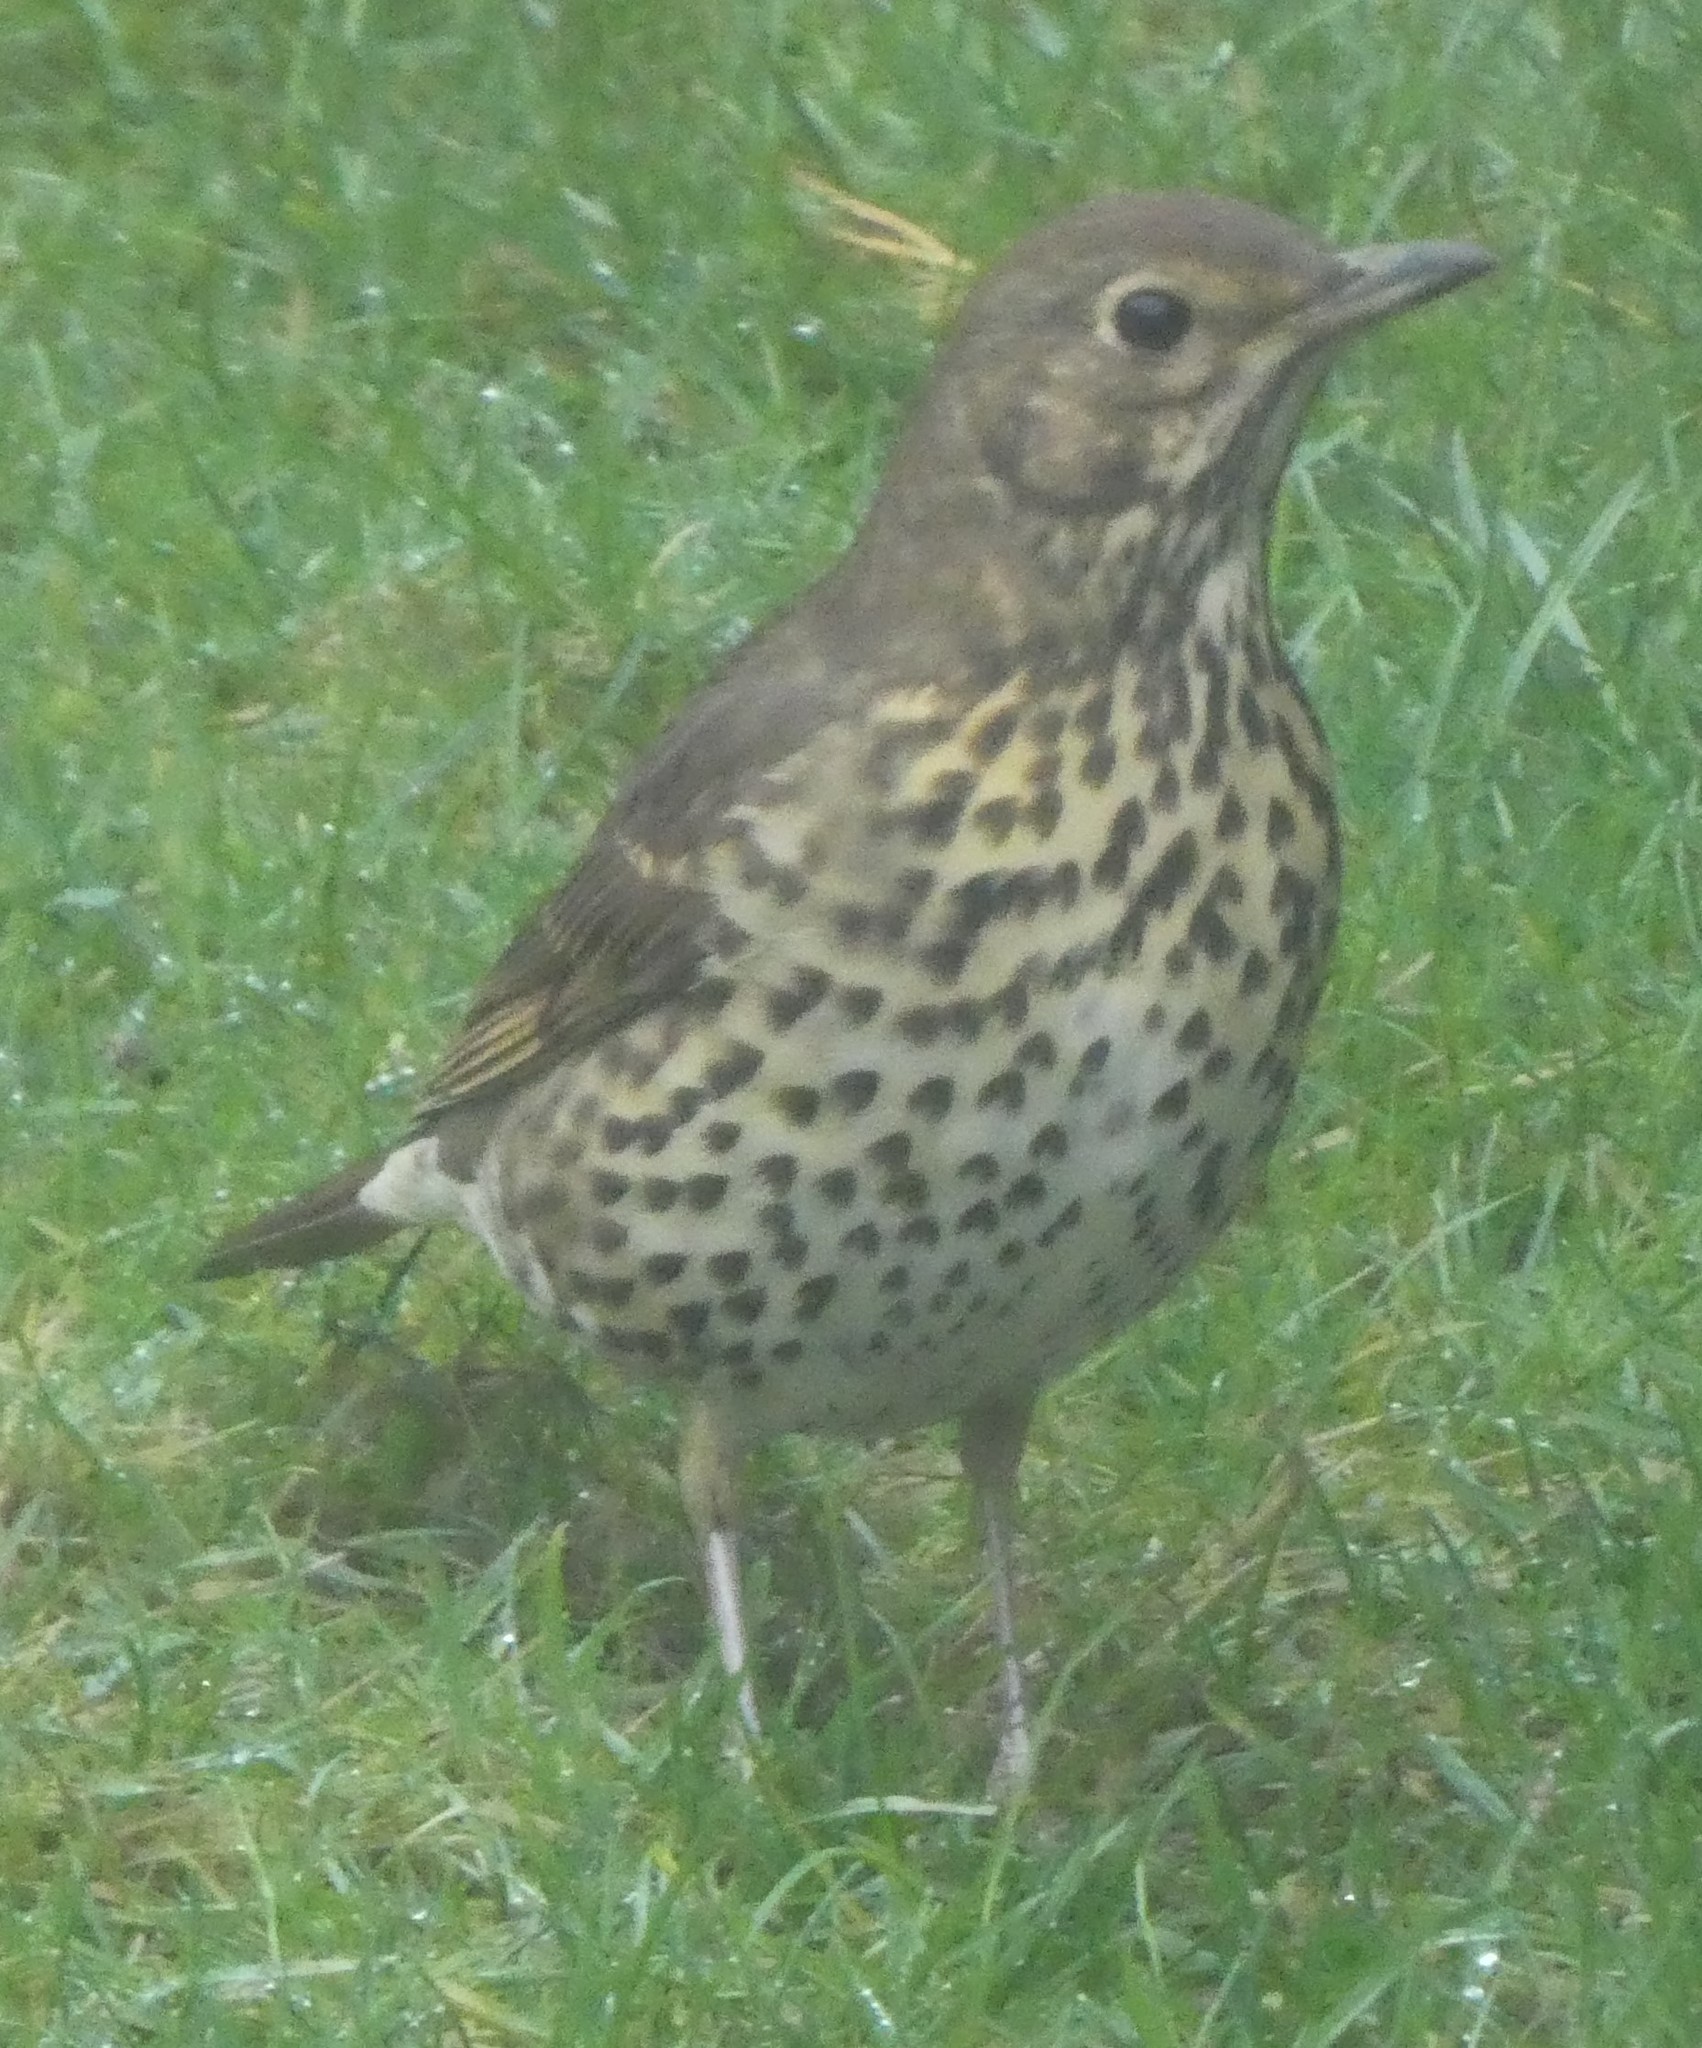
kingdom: Animalia
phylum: Chordata
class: Aves
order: Passeriformes
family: Turdidae
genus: Turdus
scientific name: Turdus philomelos
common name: Song thrush
